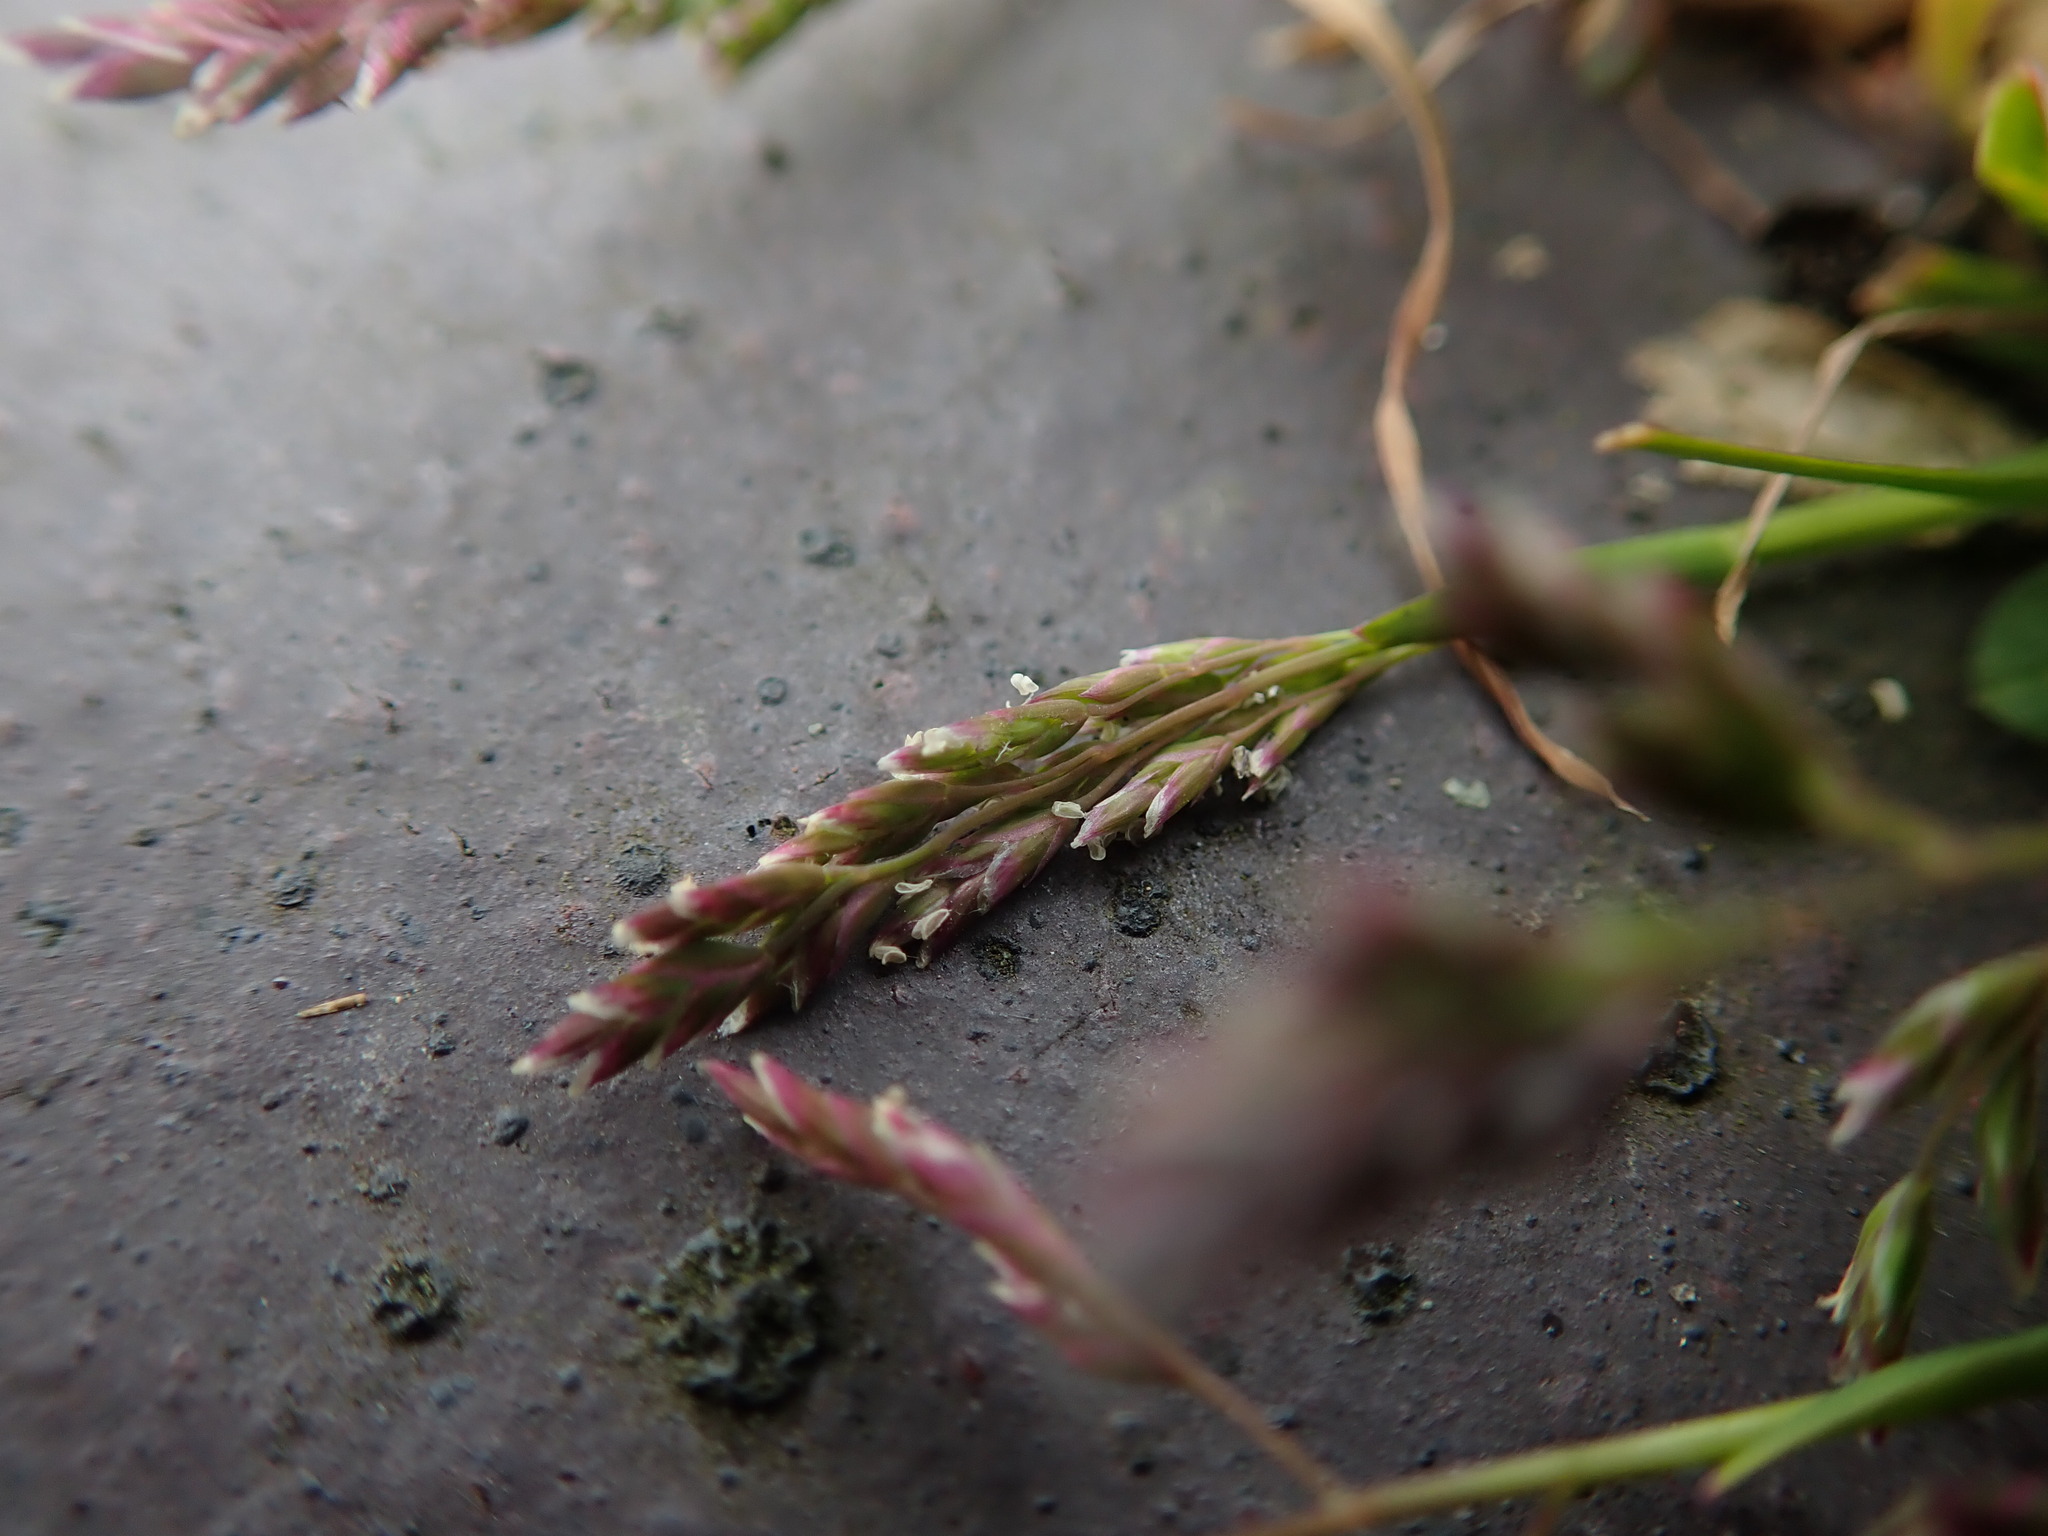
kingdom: Plantae
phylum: Tracheophyta
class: Liliopsida
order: Poales
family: Poaceae
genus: Poa
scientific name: Poa annua
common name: Annual bluegrass
